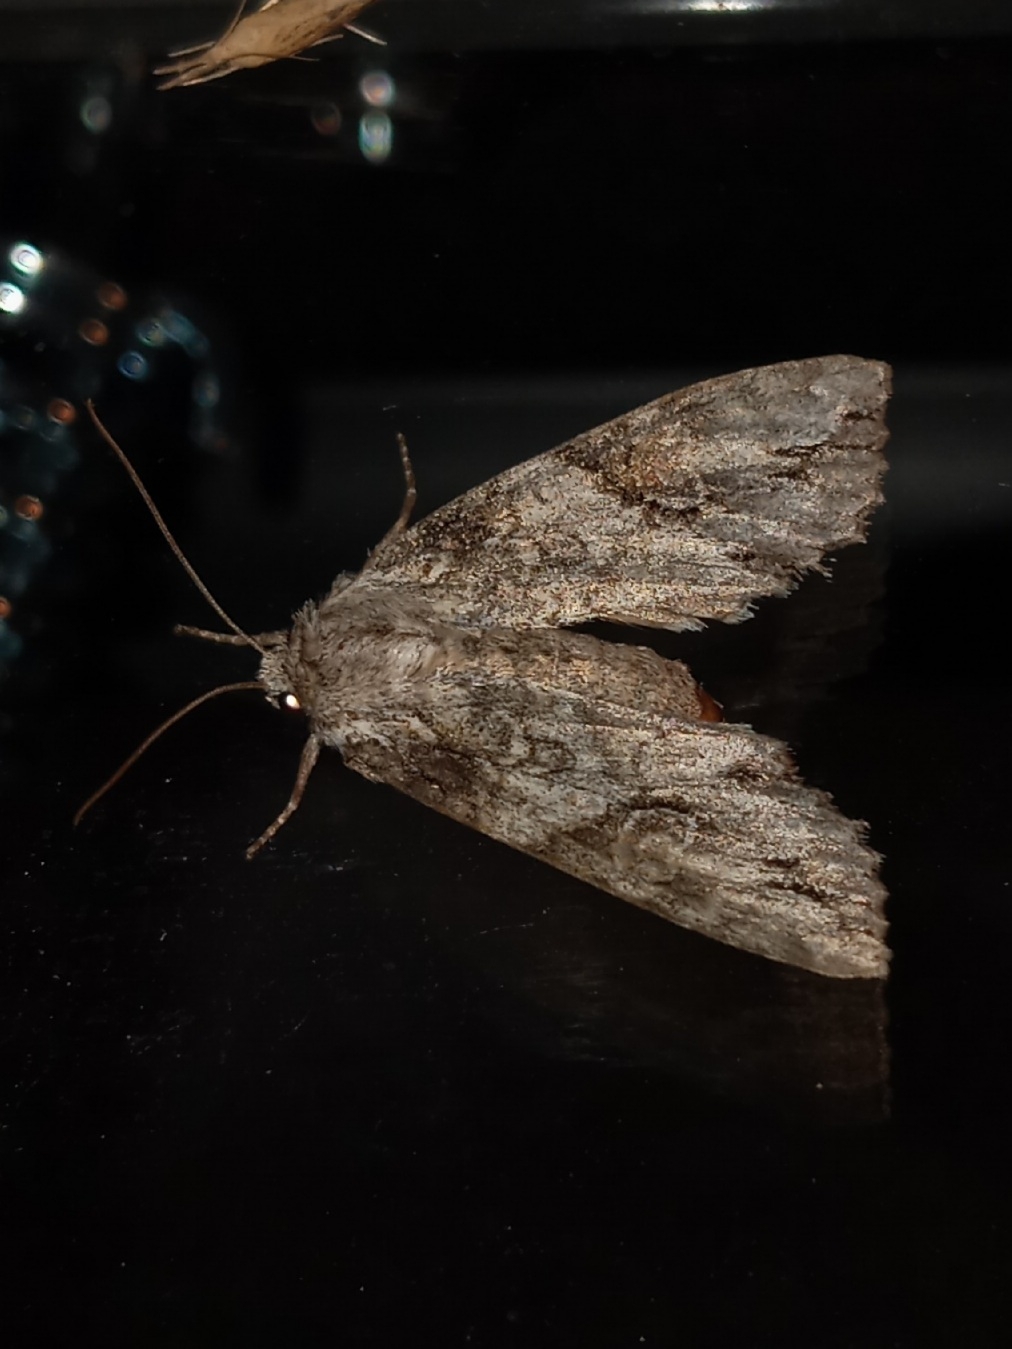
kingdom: Animalia
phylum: Arthropoda
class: Insecta
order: Lepidoptera
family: Noctuidae
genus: Achatia
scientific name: Achatia latex
